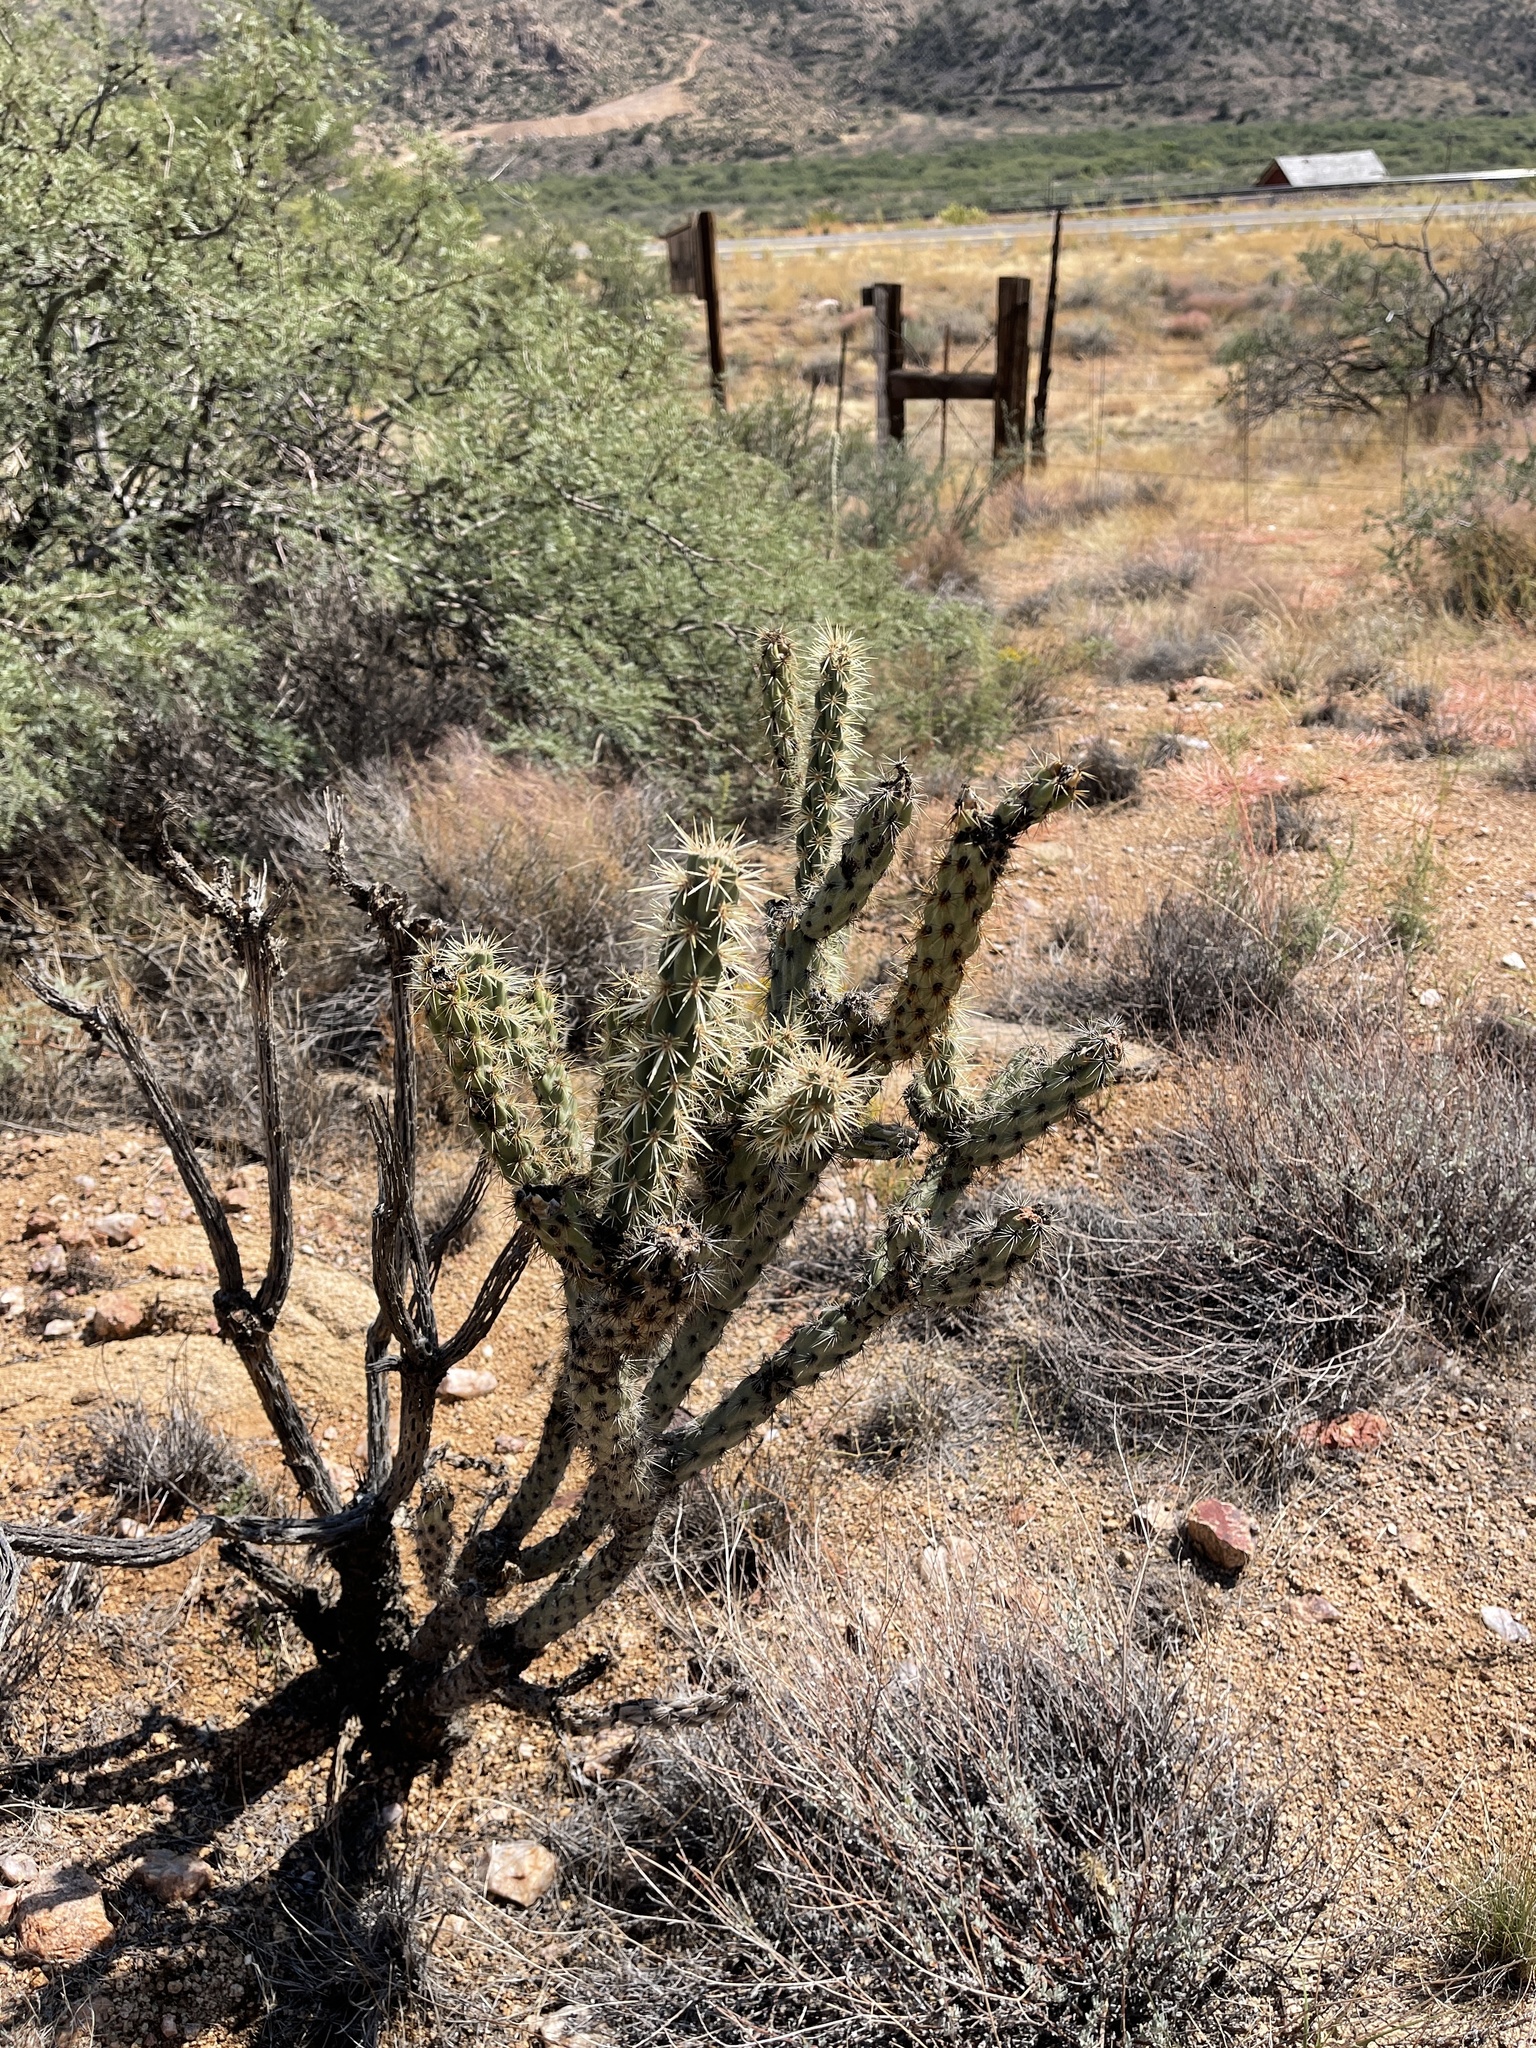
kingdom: Plantae
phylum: Tracheophyta
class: Magnoliopsida
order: Caryophyllales
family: Cactaceae
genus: Cylindropuntia
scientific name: Cylindropuntia acanthocarpa
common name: Buckhorn cholla
